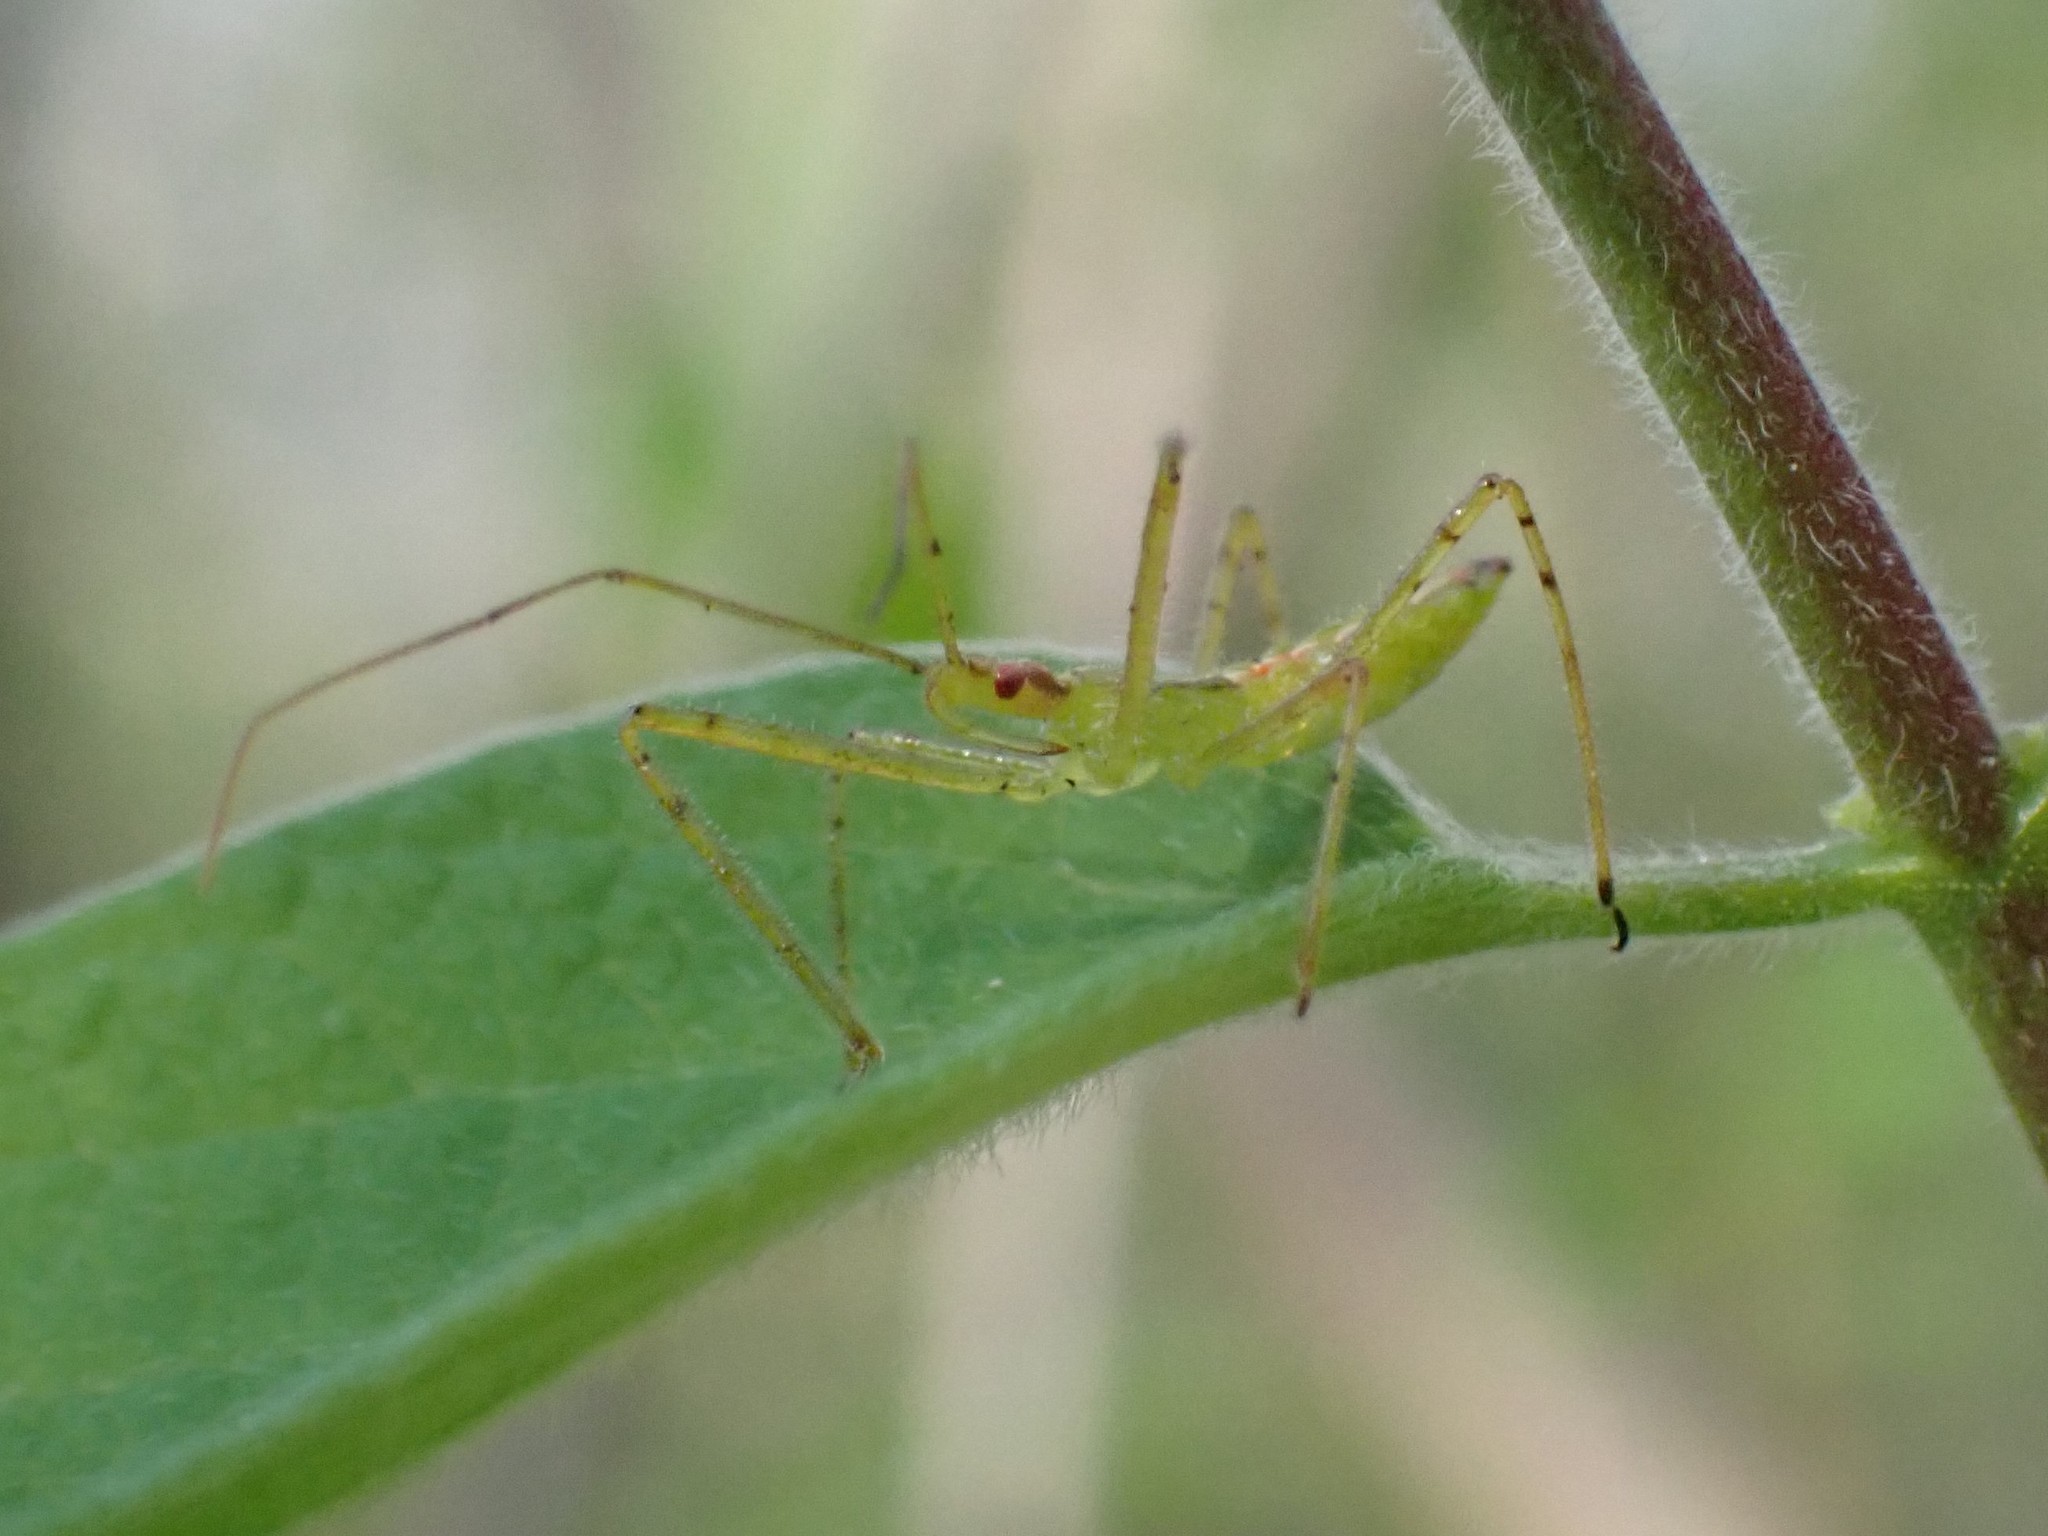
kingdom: Animalia
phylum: Arthropoda
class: Insecta
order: Hemiptera
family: Reduviidae
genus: Zelus
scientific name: Zelus luridus
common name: Pale green assassin bug
